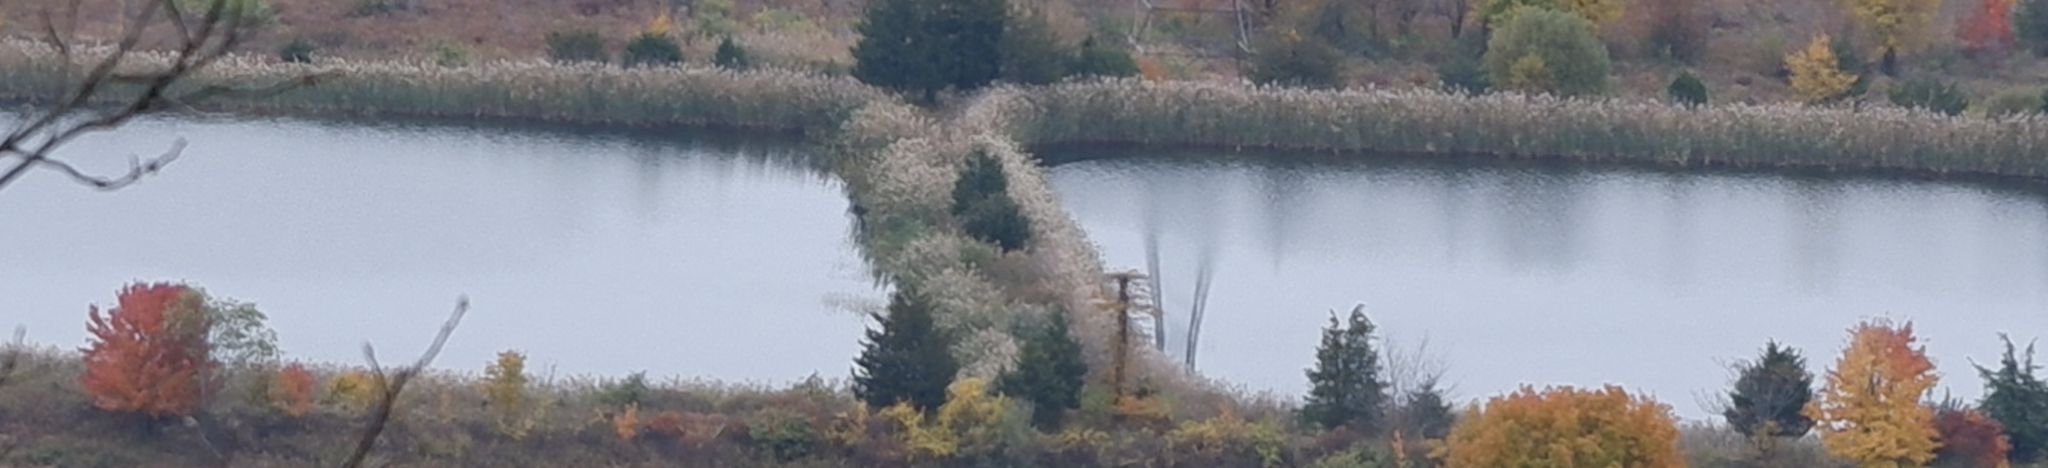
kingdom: Plantae
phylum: Tracheophyta
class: Liliopsida
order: Poales
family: Poaceae
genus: Phragmites
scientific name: Phragmites australis
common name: Common reed
